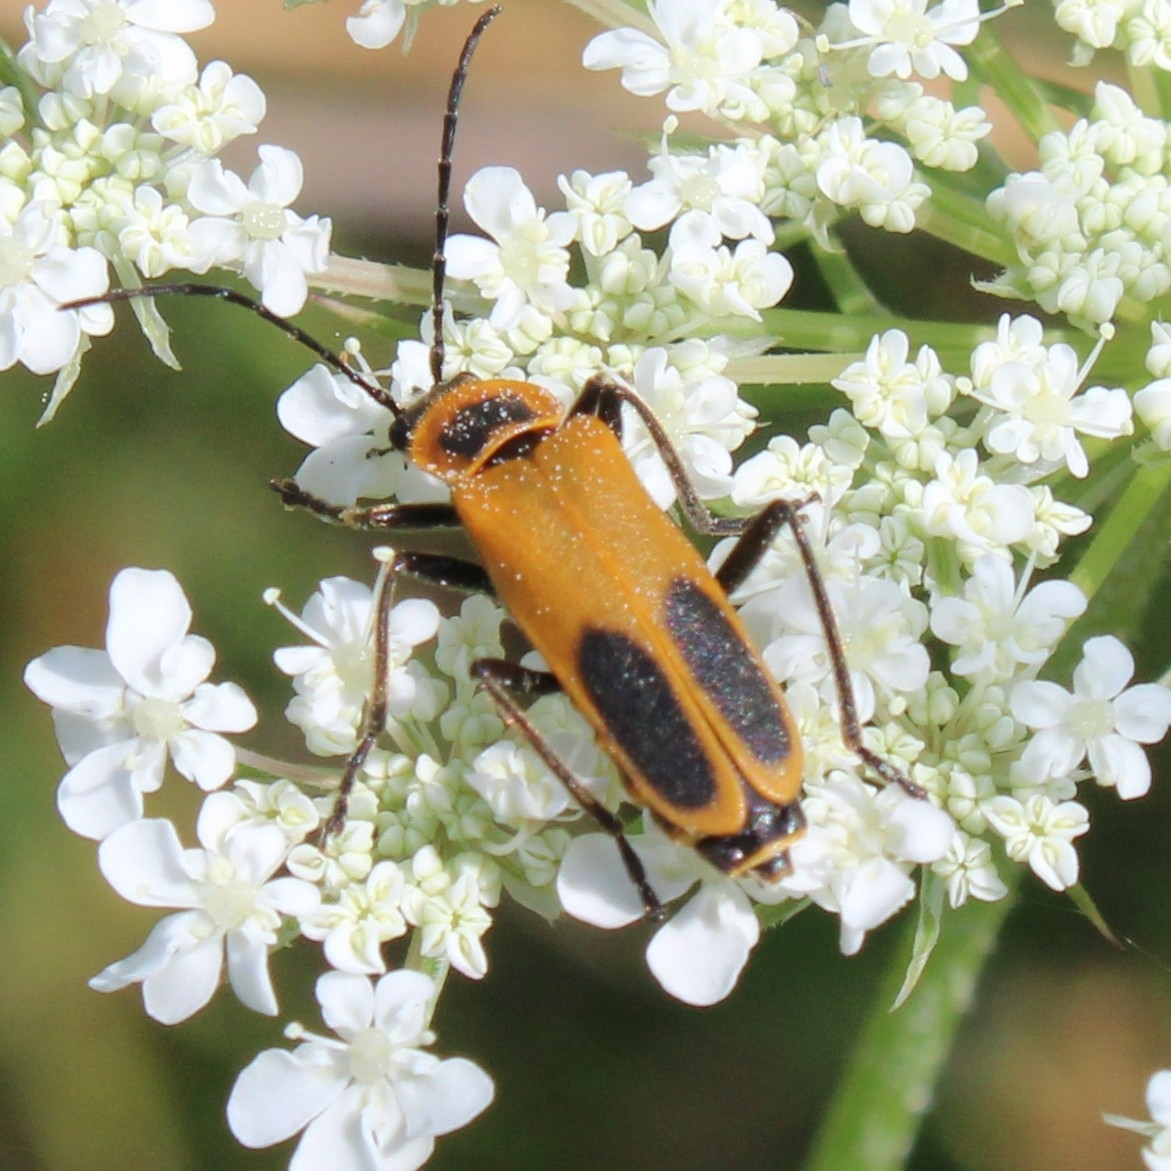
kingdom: Animalia
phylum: Arthropoda
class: Insecta
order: Coleoptera
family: Cantharidae
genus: Chauliognathus
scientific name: Chauliognathus pensylvanicus
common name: Goldenrod soldier beetle
